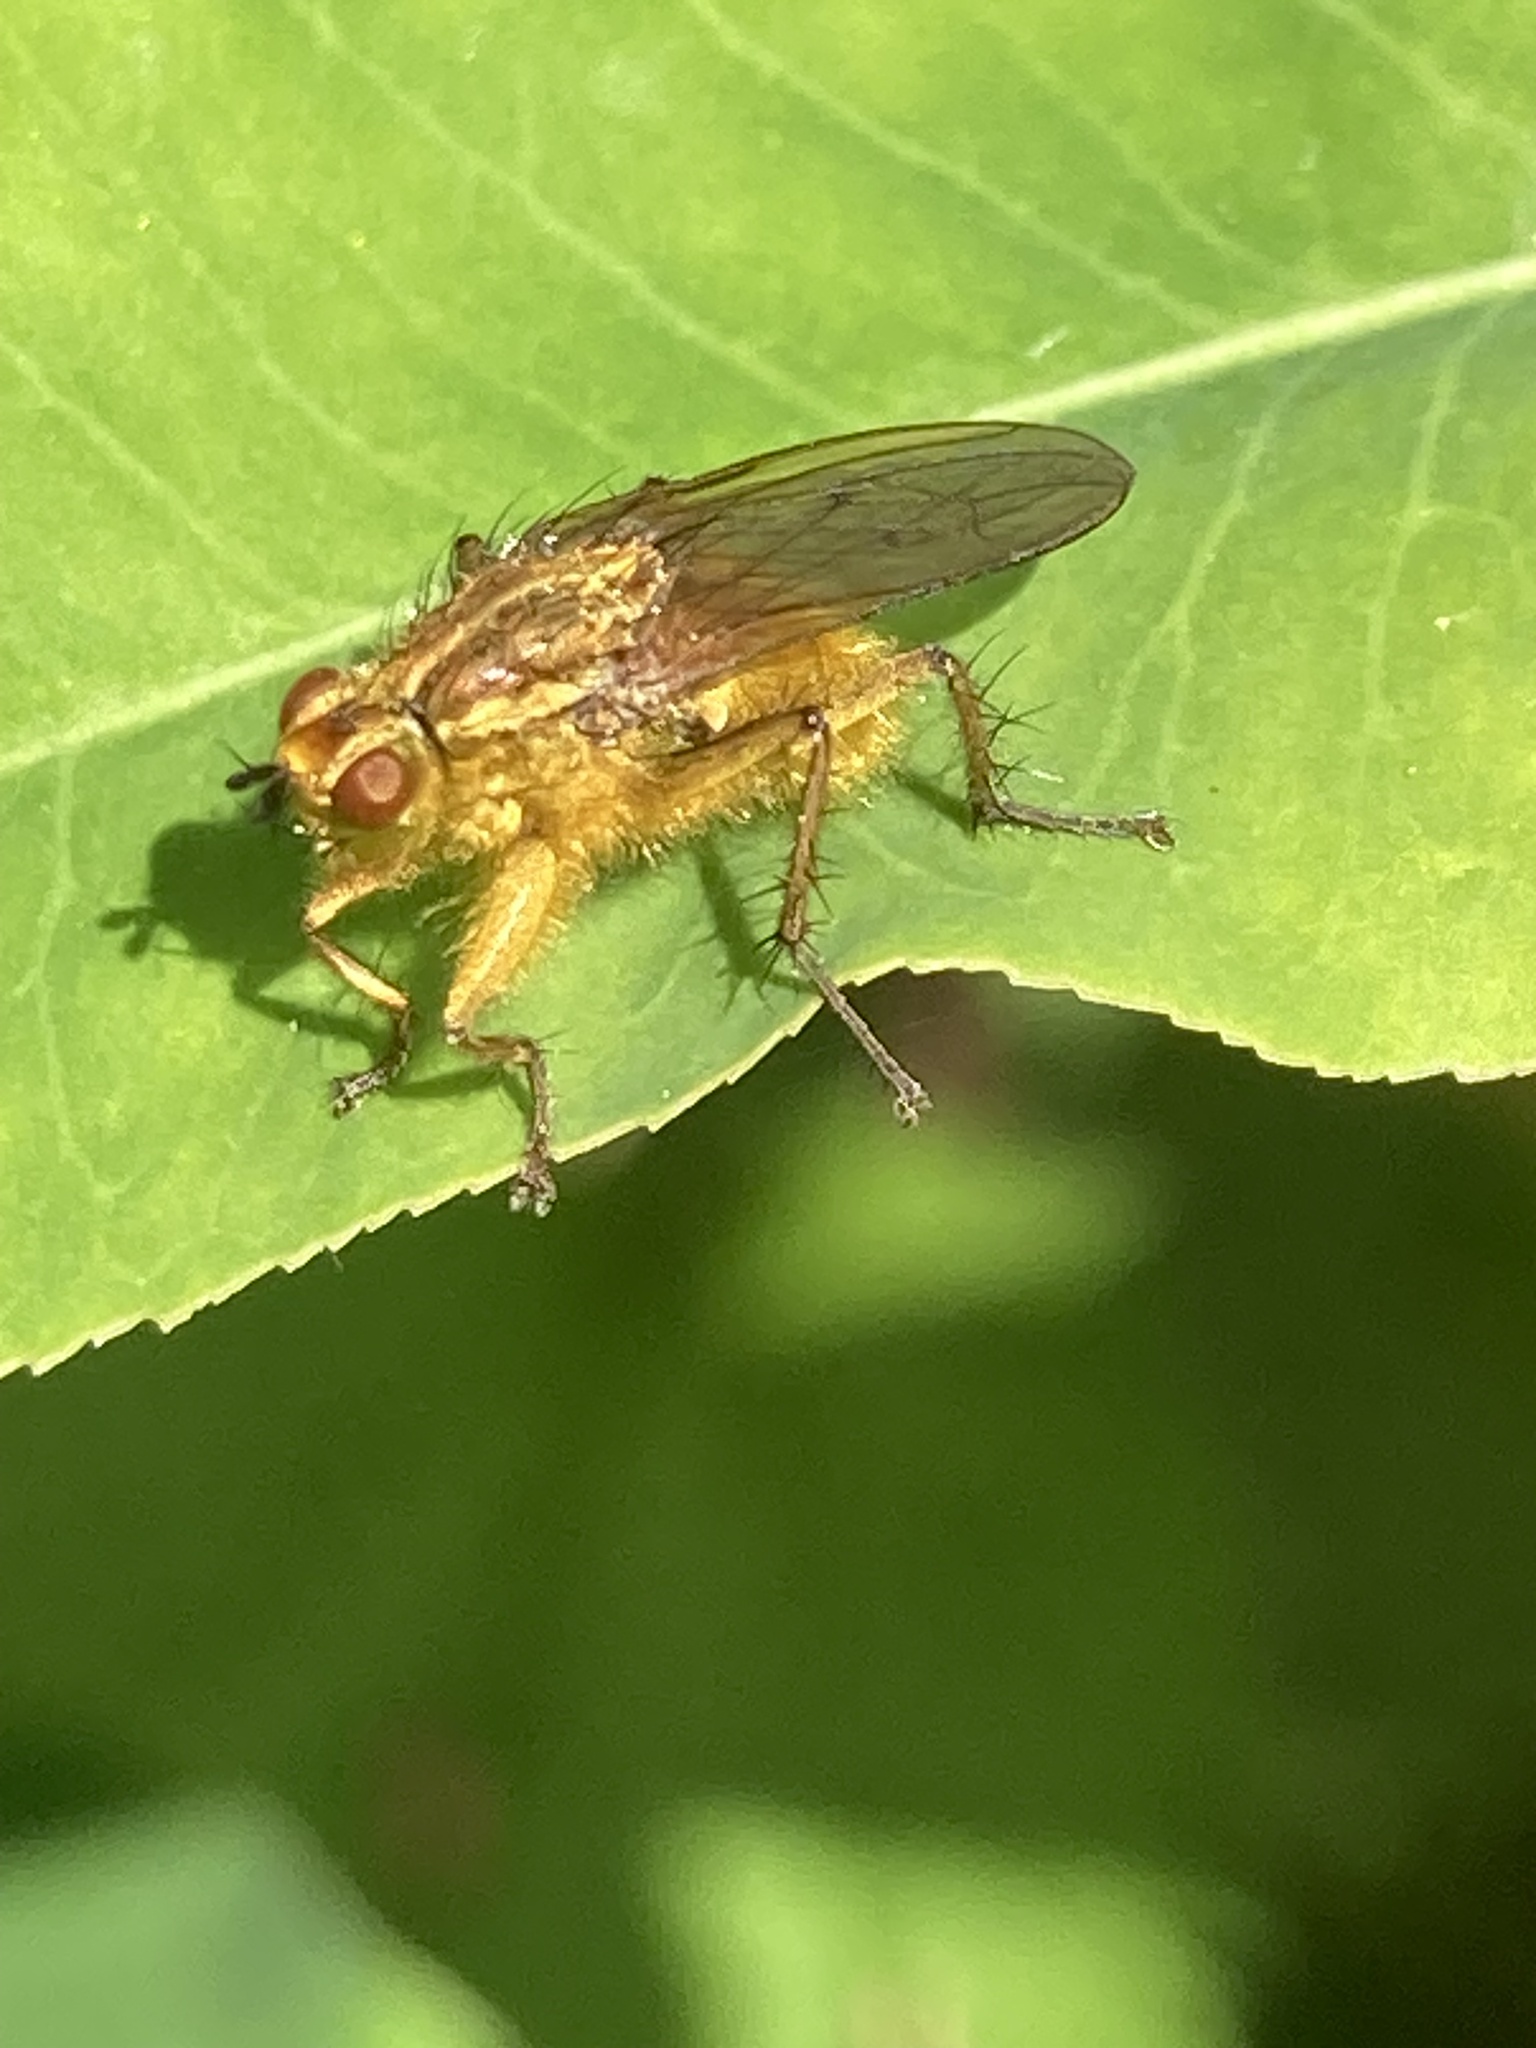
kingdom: Animalia
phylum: Arthropoda
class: Insecta
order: Diptera
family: Scathophagidae
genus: Scathophaga
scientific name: Scathophaga stercoraria
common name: Yellow dung fly
